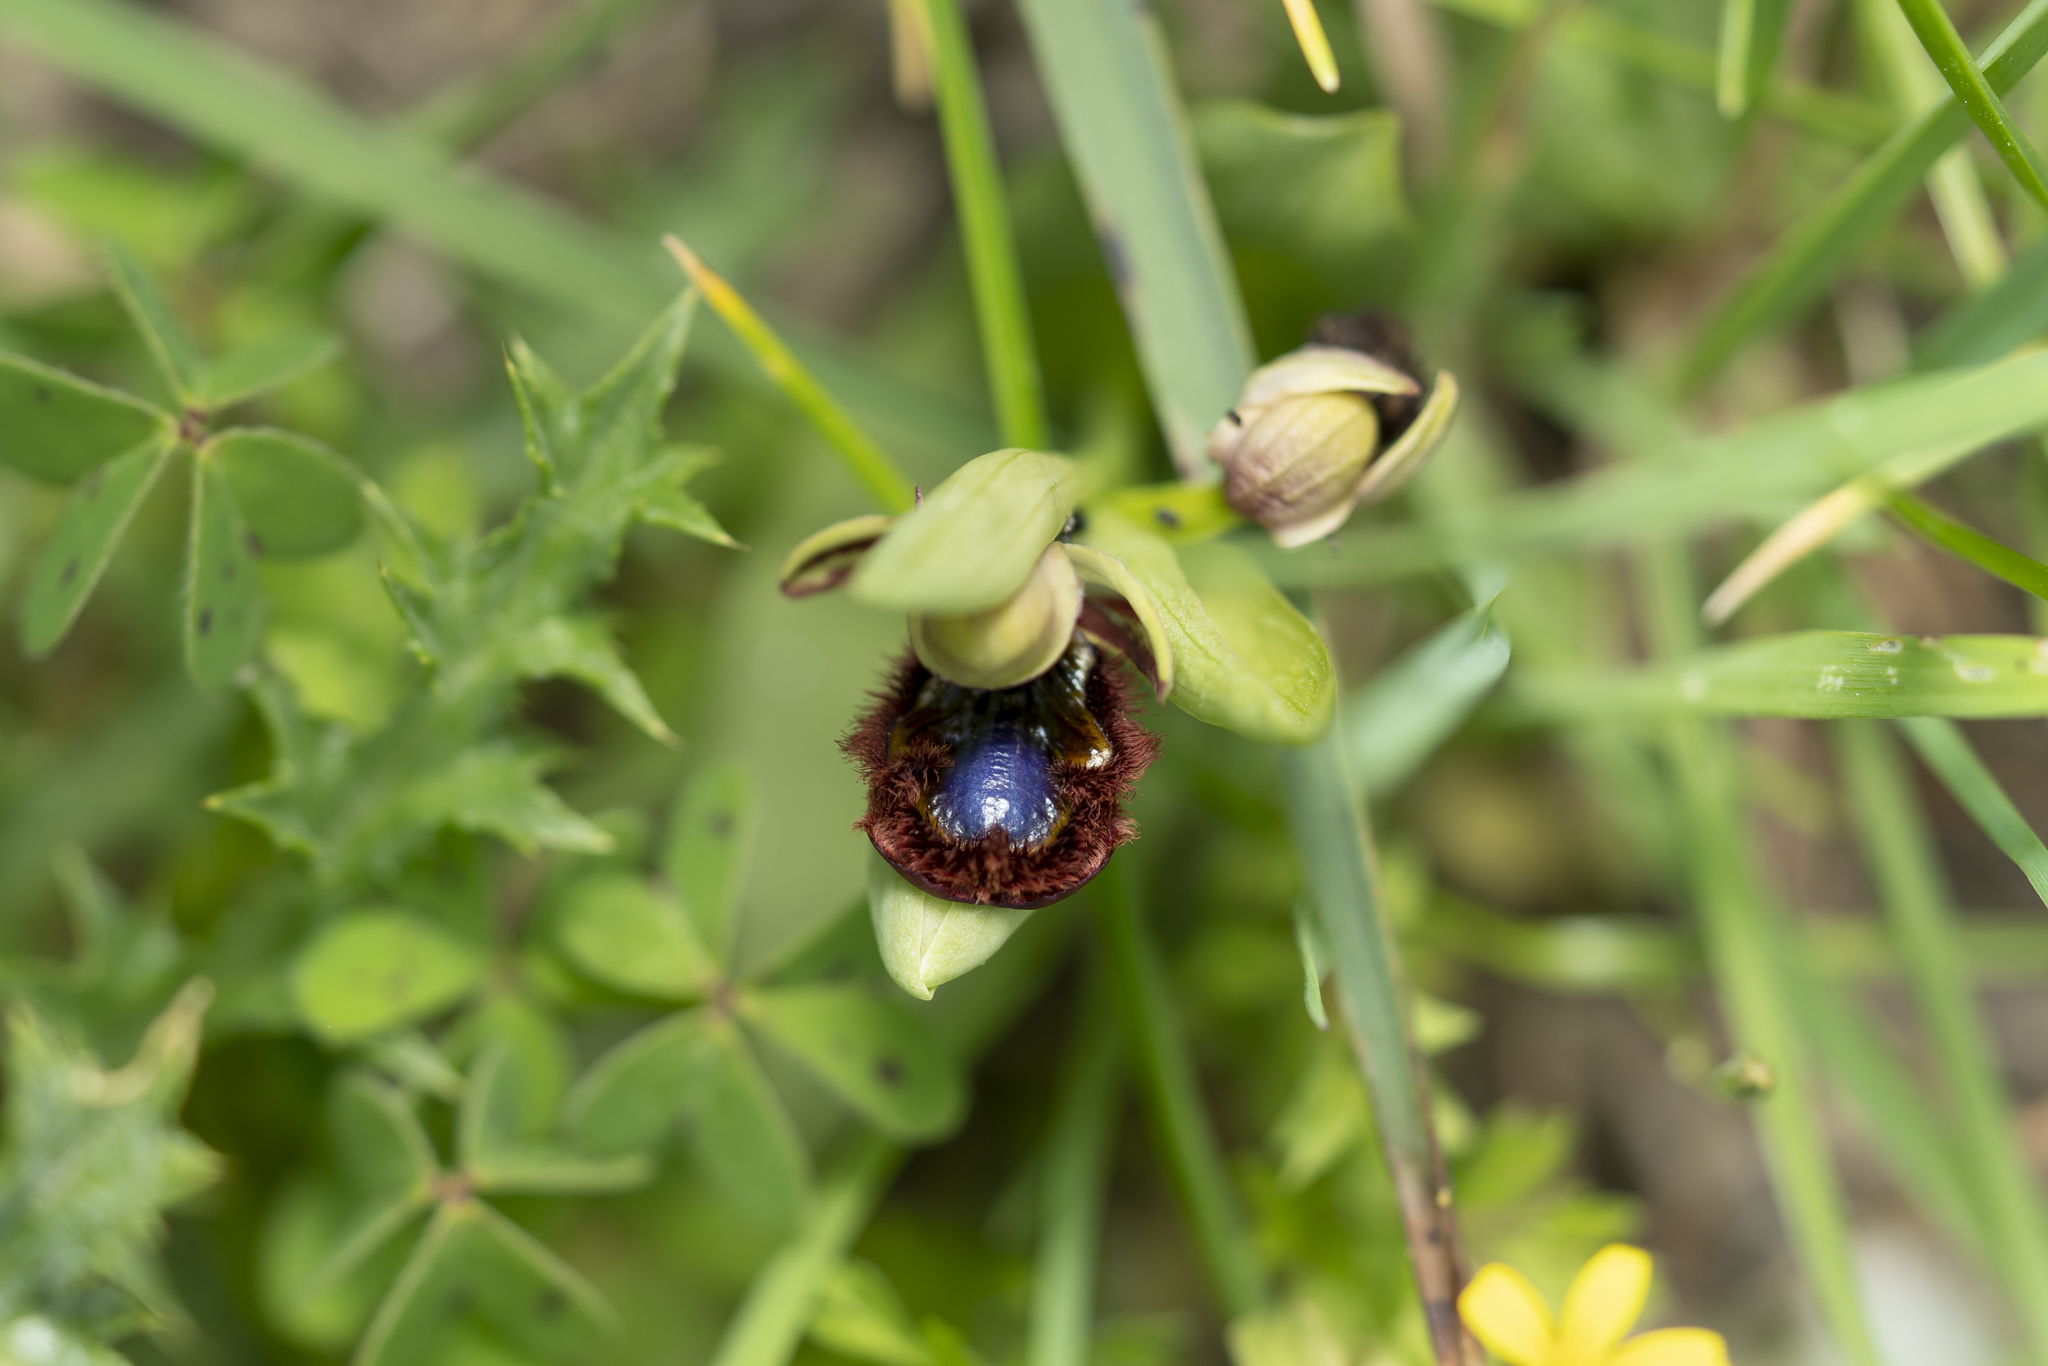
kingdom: Plantae
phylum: Tracheophyta
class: Liliopsida
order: Asparagales
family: Orchidaceae
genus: Ophrys
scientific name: Ophrys speculum
